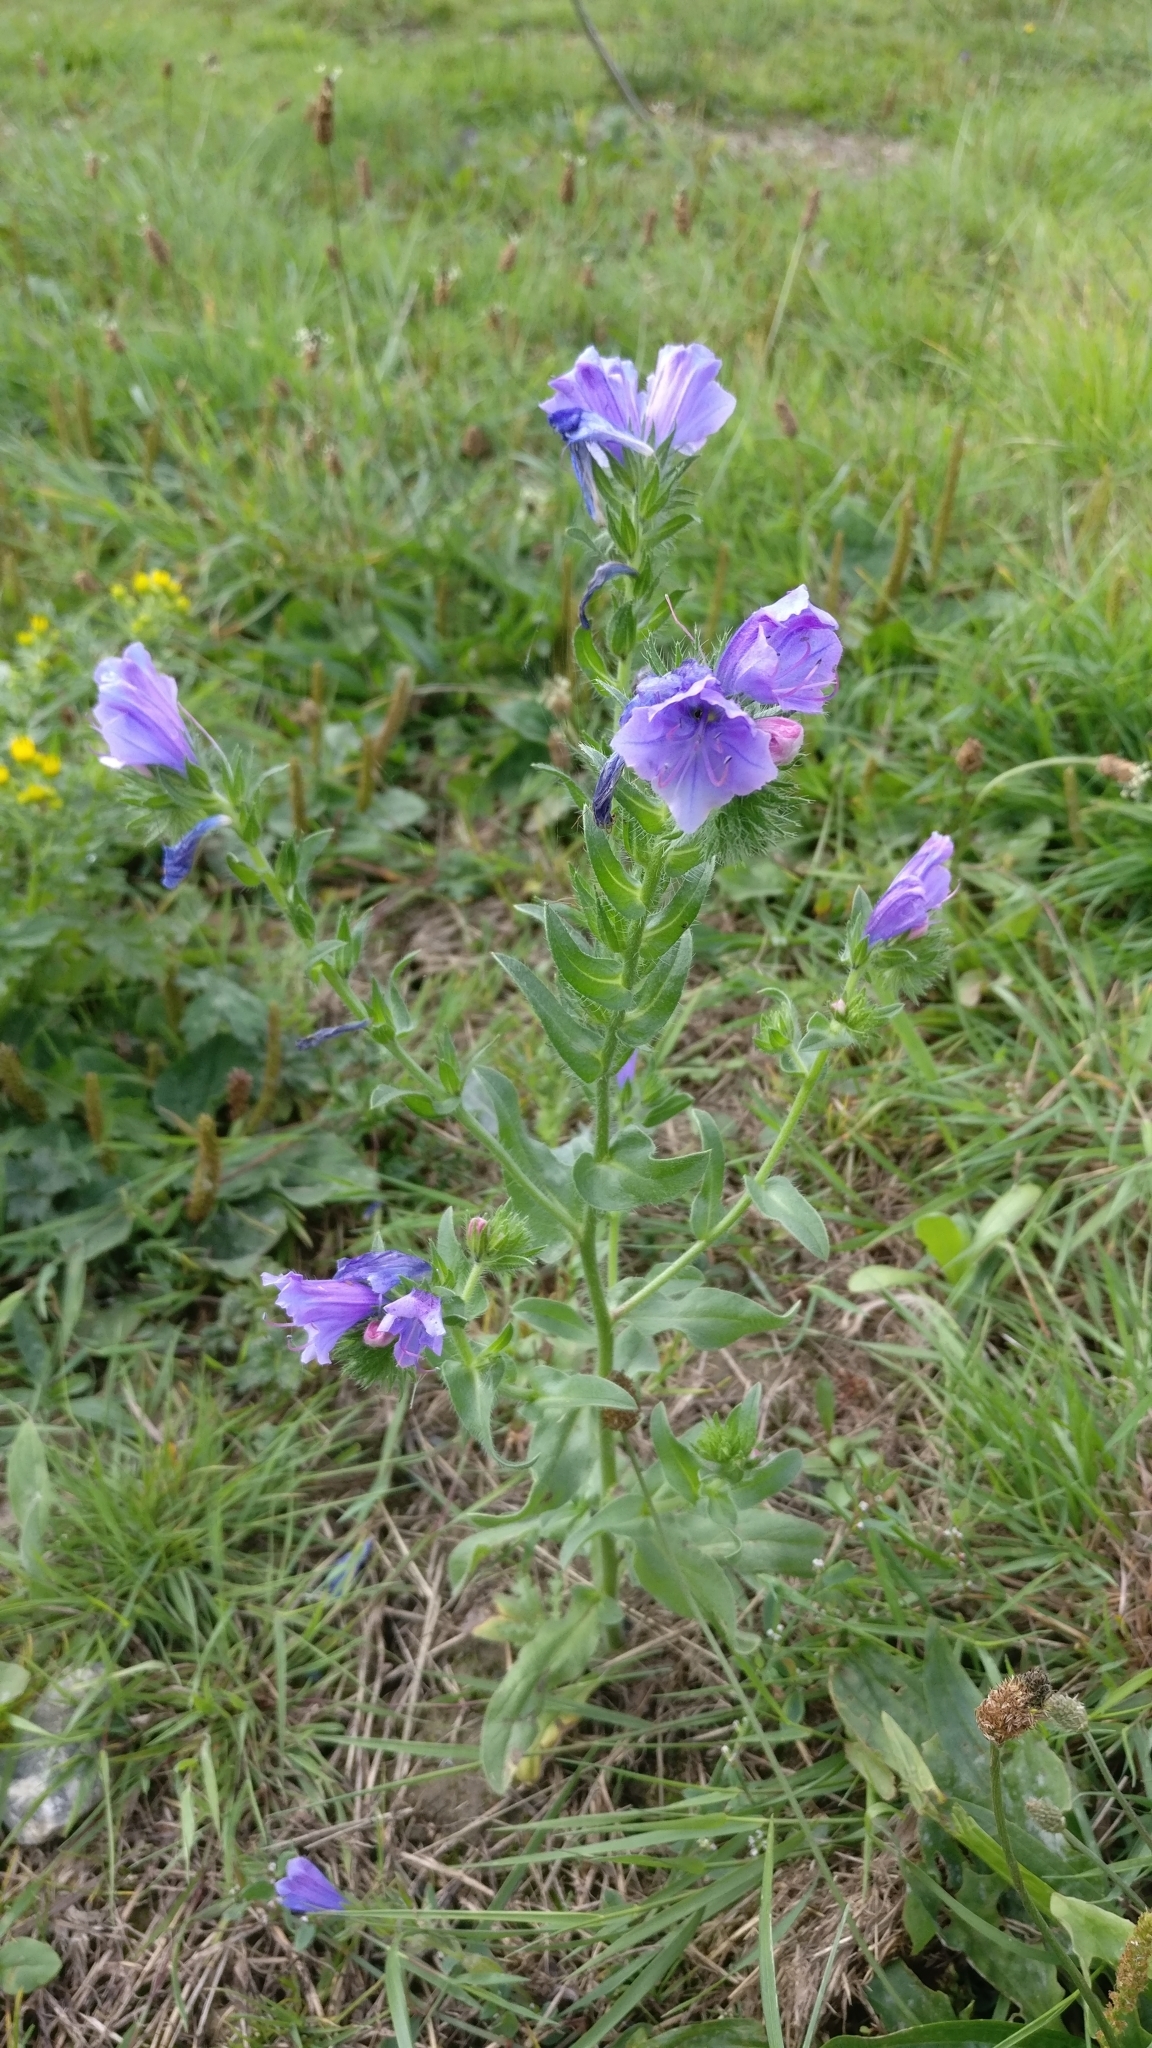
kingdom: Plantae
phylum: Tracheophyta
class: Magnoliopsida
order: Boraginales
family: Boraginaceae
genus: Echium
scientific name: Echium plantagineum
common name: Purple viper's-bugloss
